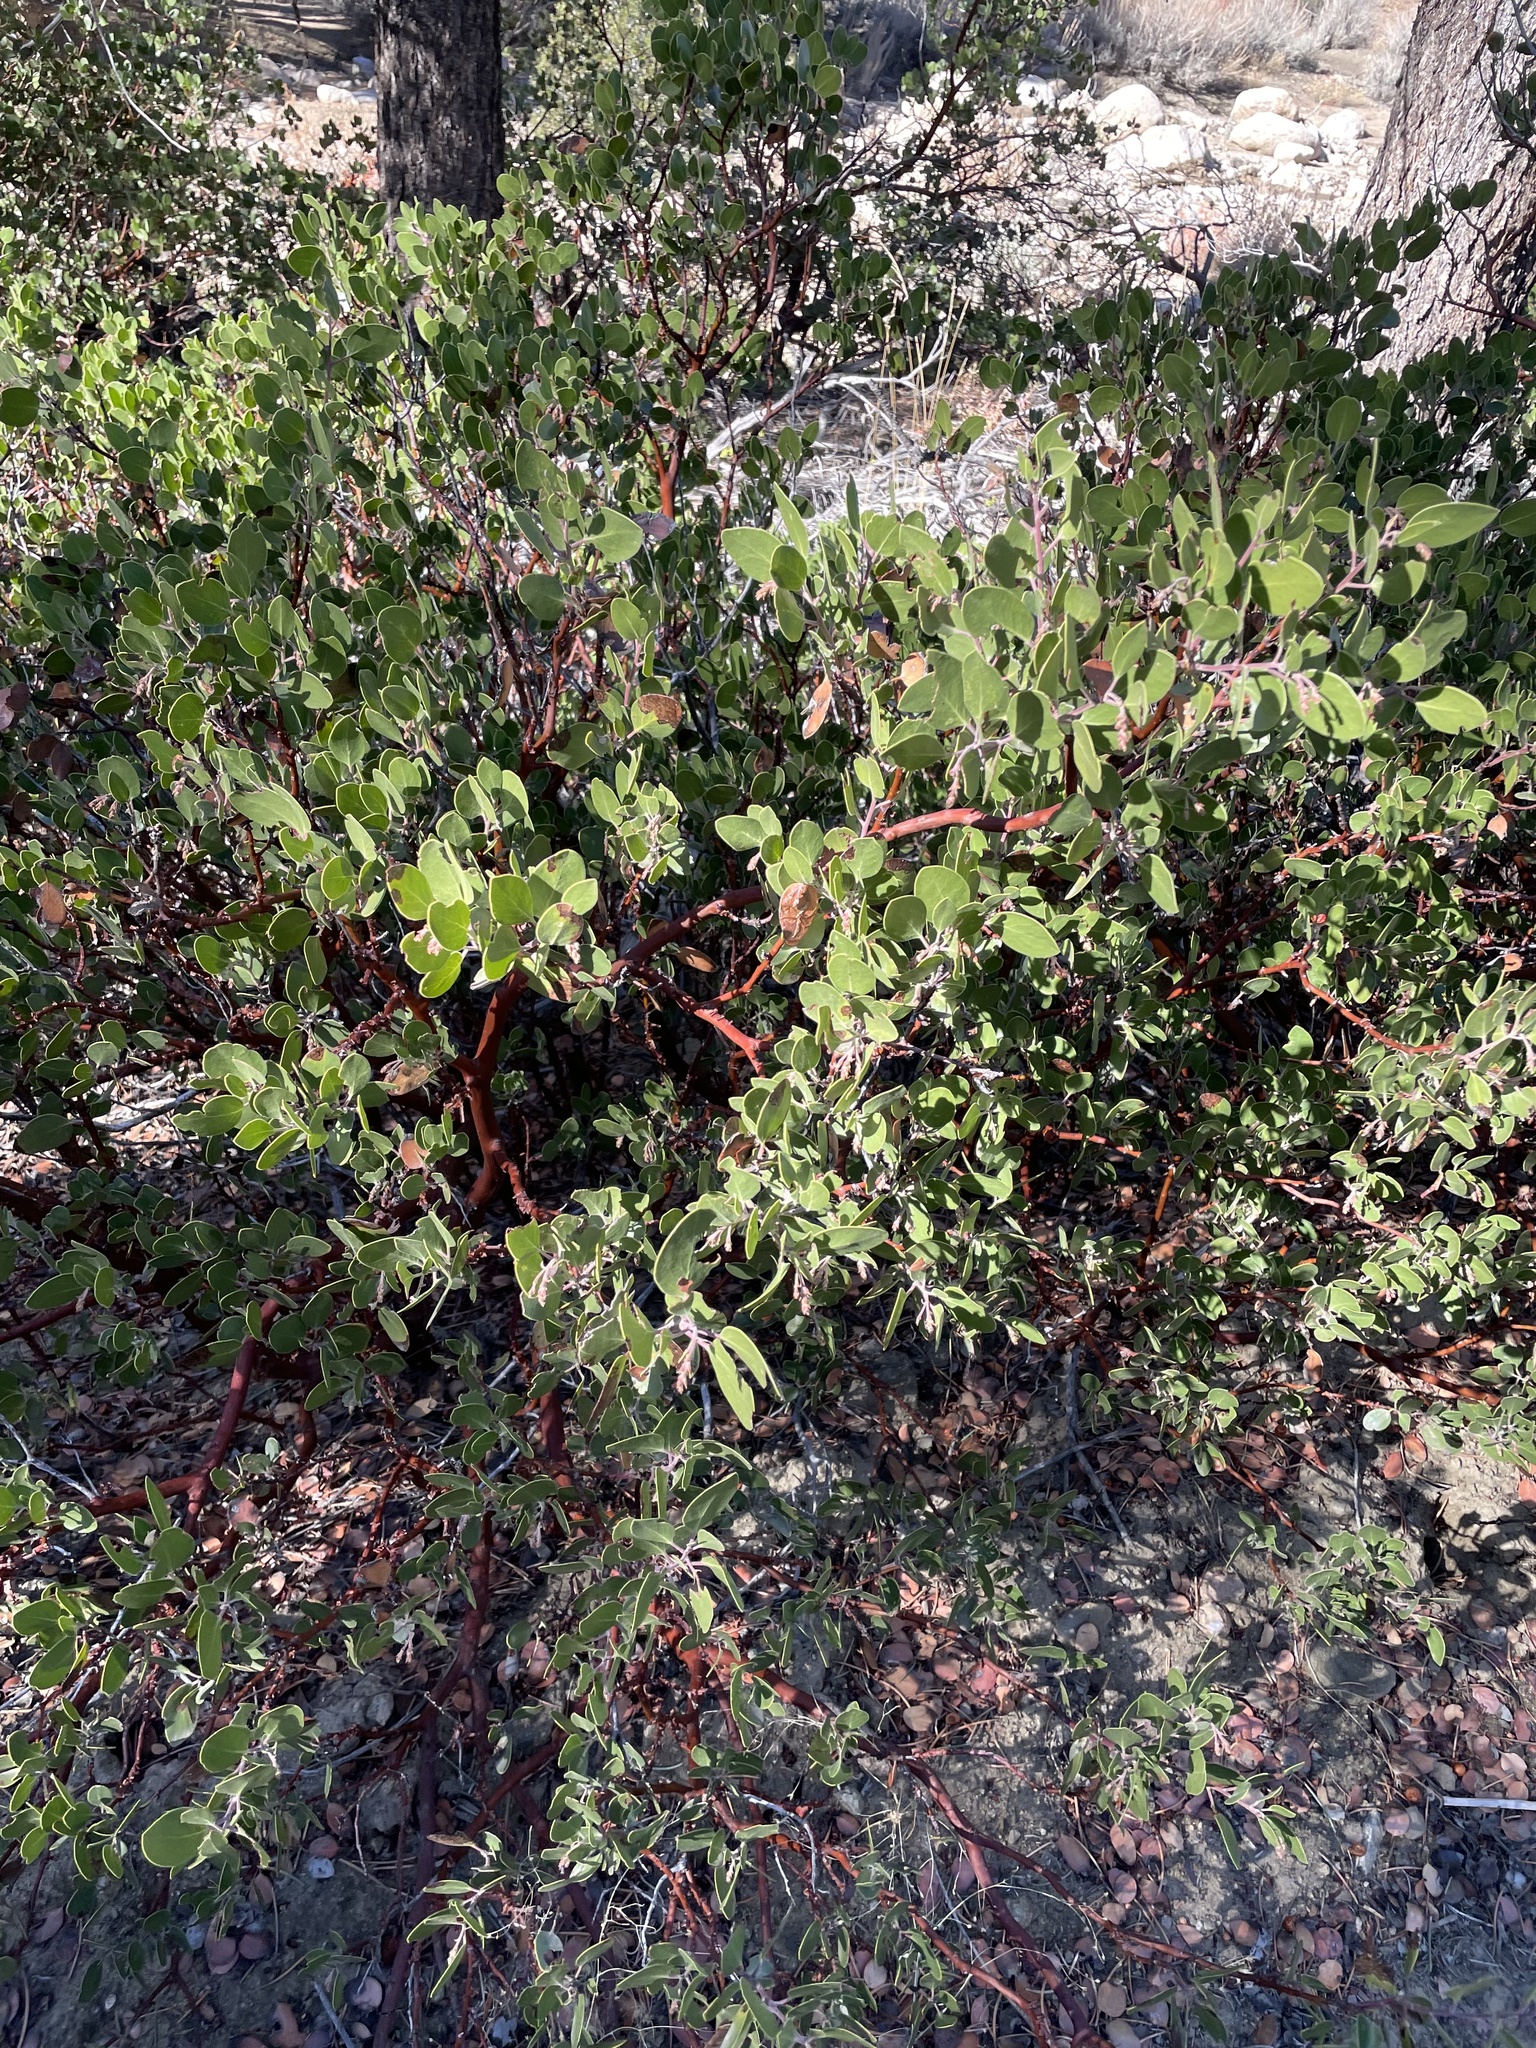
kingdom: Plantae
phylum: Tracheophyta
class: Magnoliopsida
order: Ericales
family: Ericaceae
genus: Arctostaphylos
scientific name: Arctostaphylos parryana
